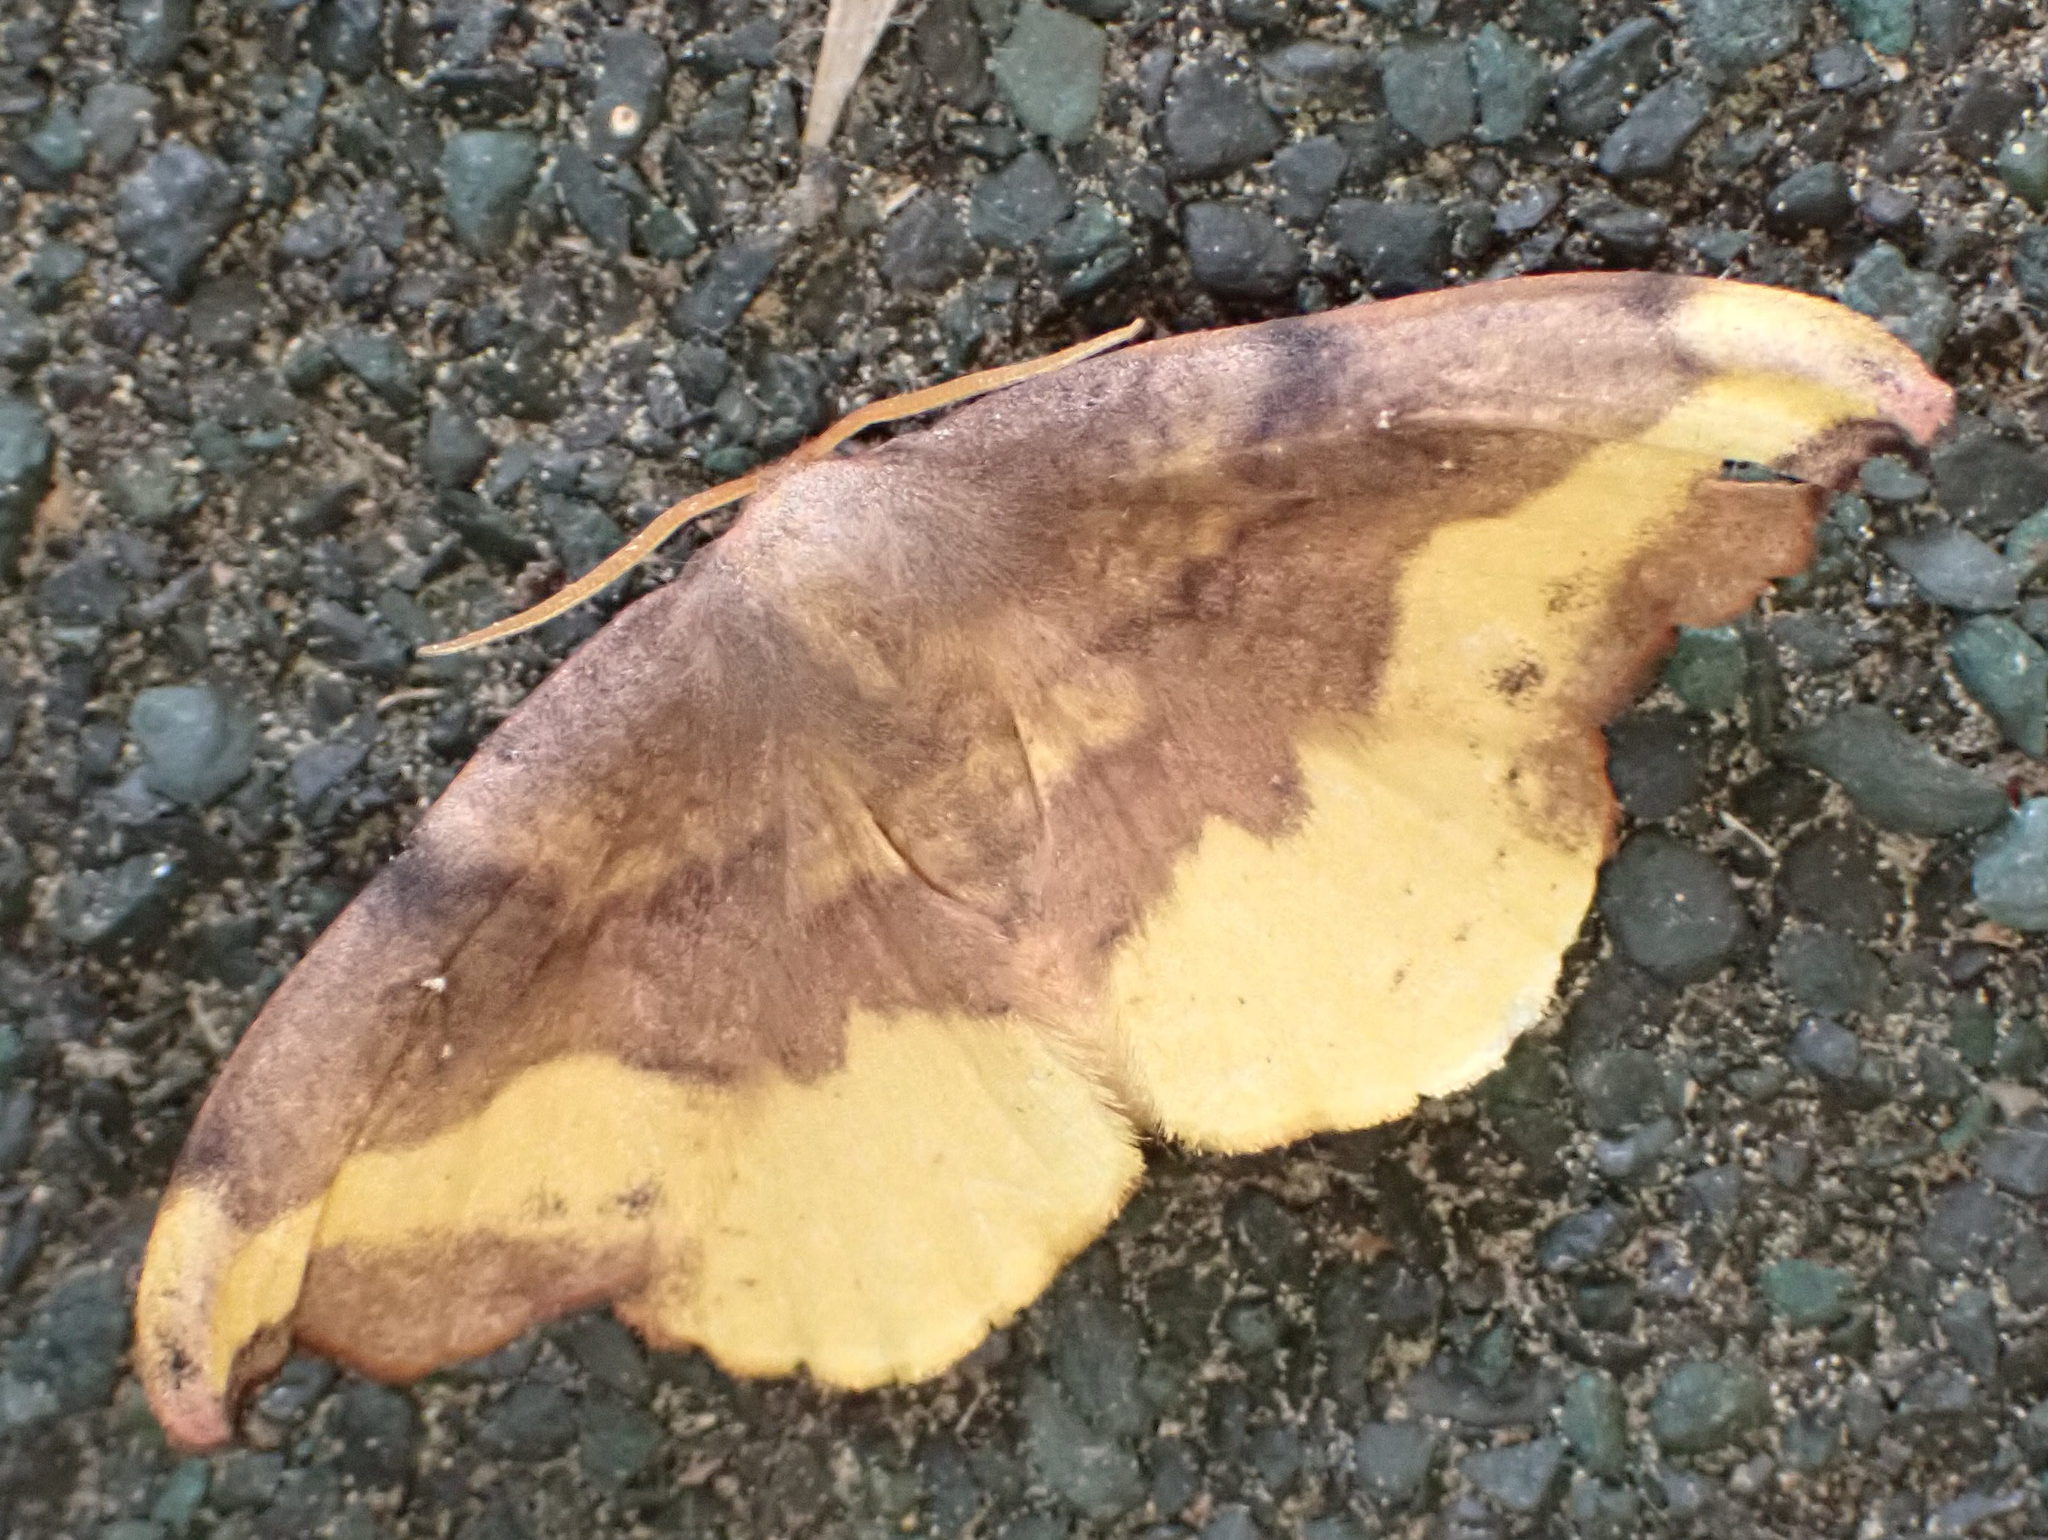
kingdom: Animalia
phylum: Arthropoda
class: Insecta
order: Lepidoptera
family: Drepanidae
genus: Oreta
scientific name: Oreta rosea
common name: Rose hooktip
